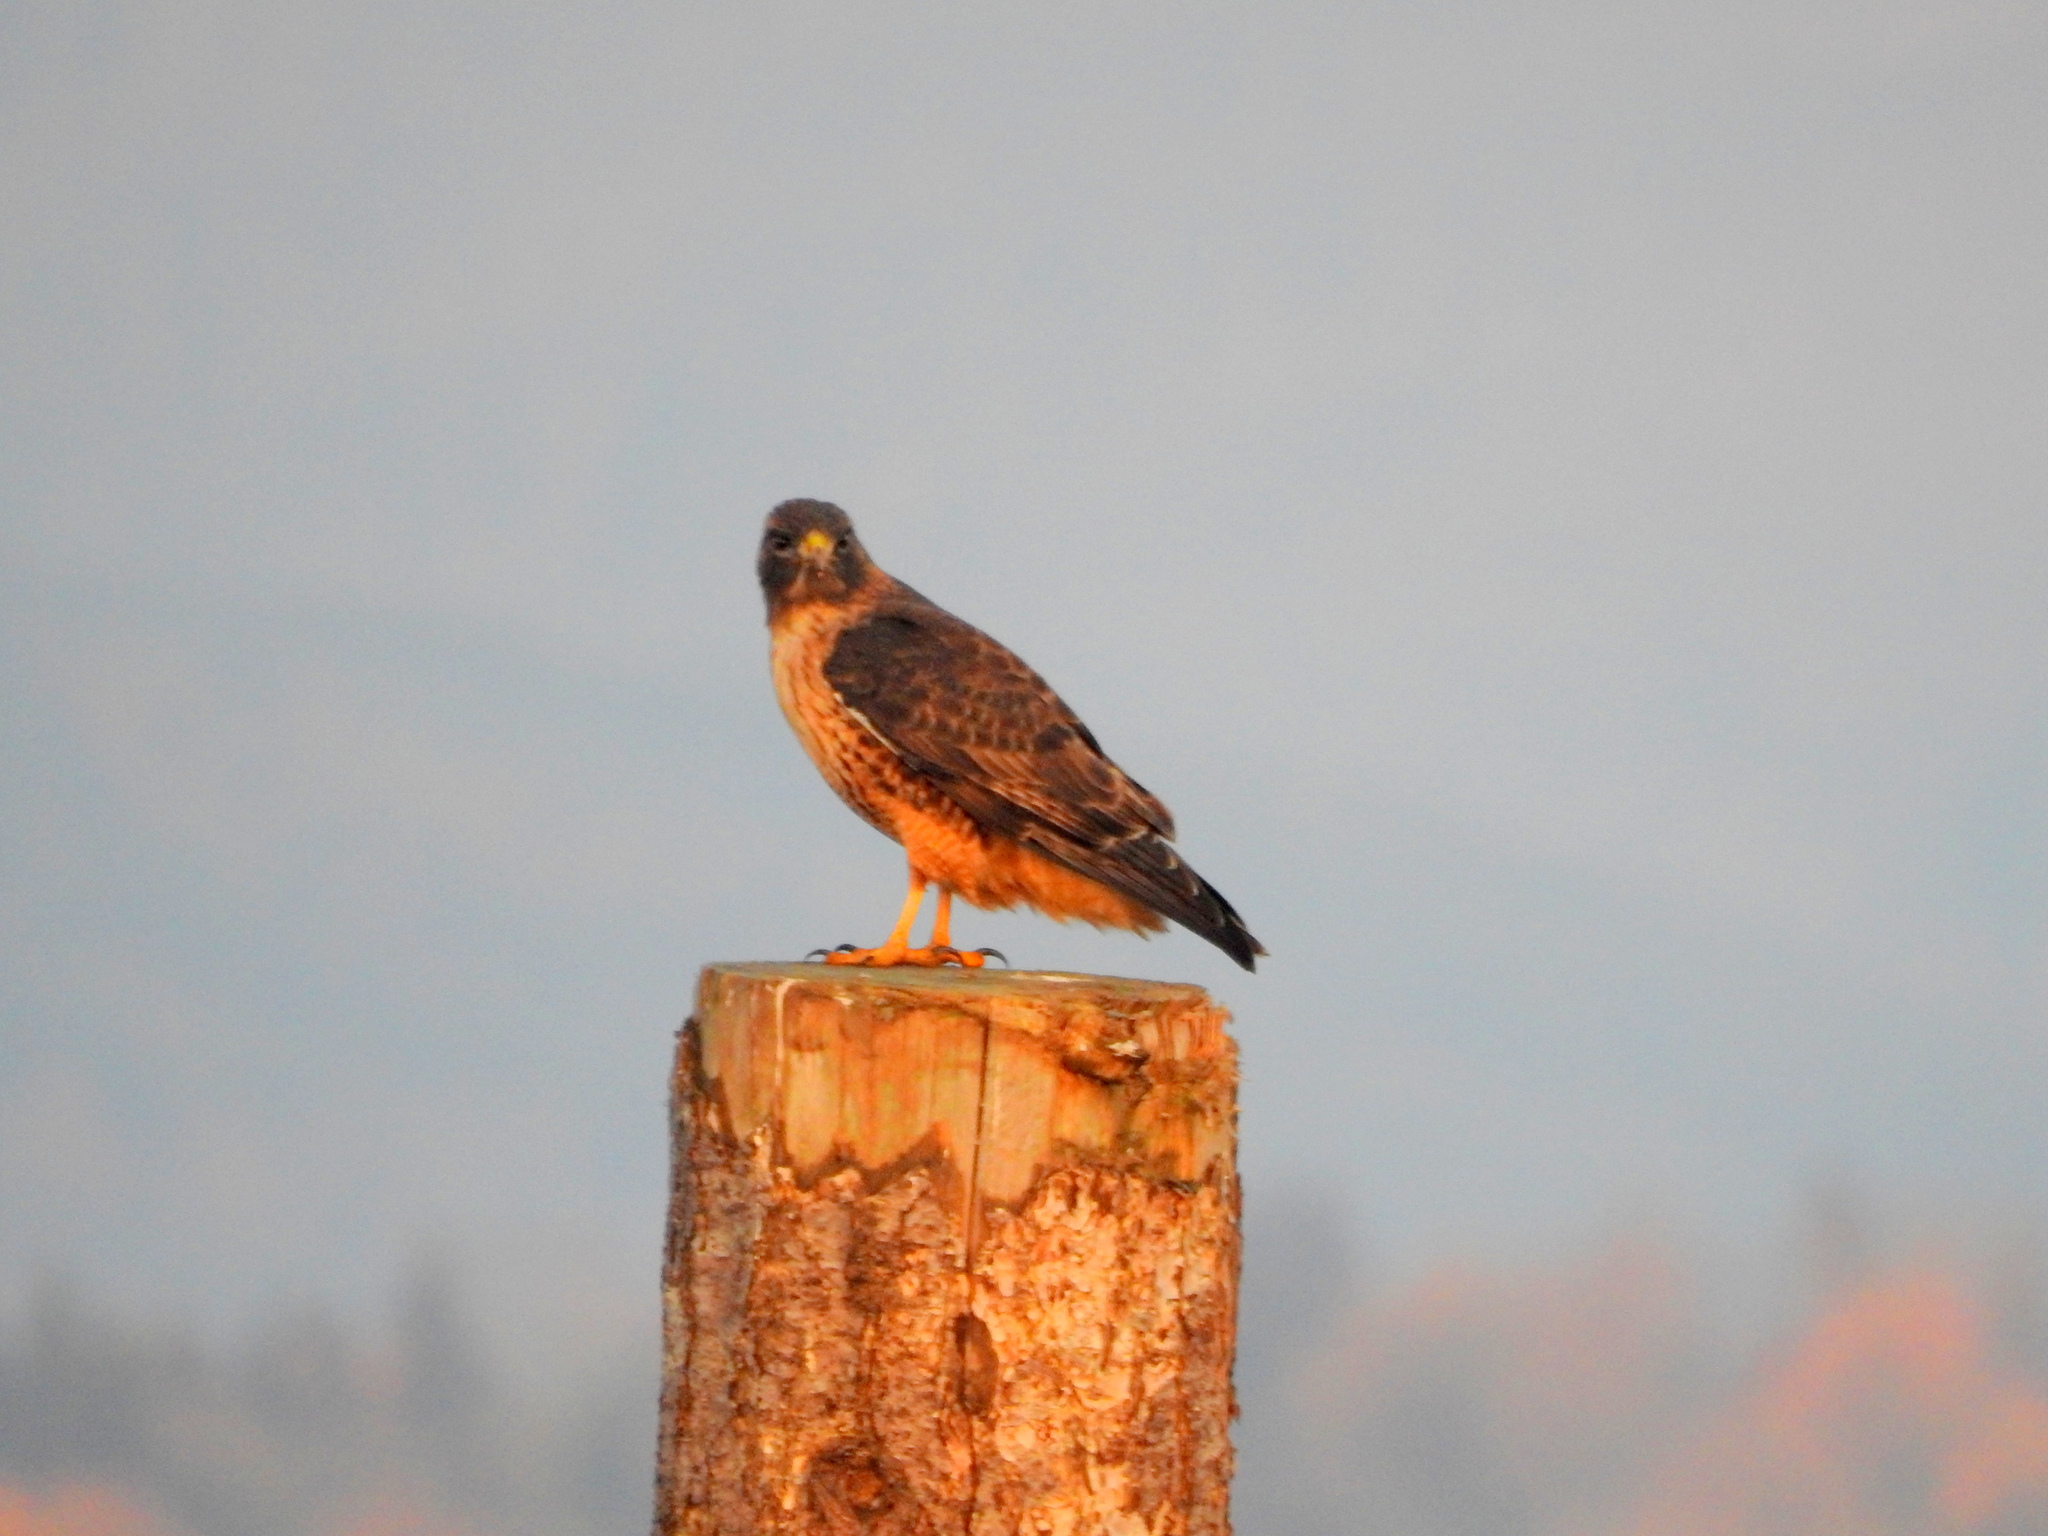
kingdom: Animalia
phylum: Chordata
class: Aves
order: Accipitriformes
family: Accipitridae
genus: Buteo
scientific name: Buteo jamaicensis
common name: Red-tailed hawk
